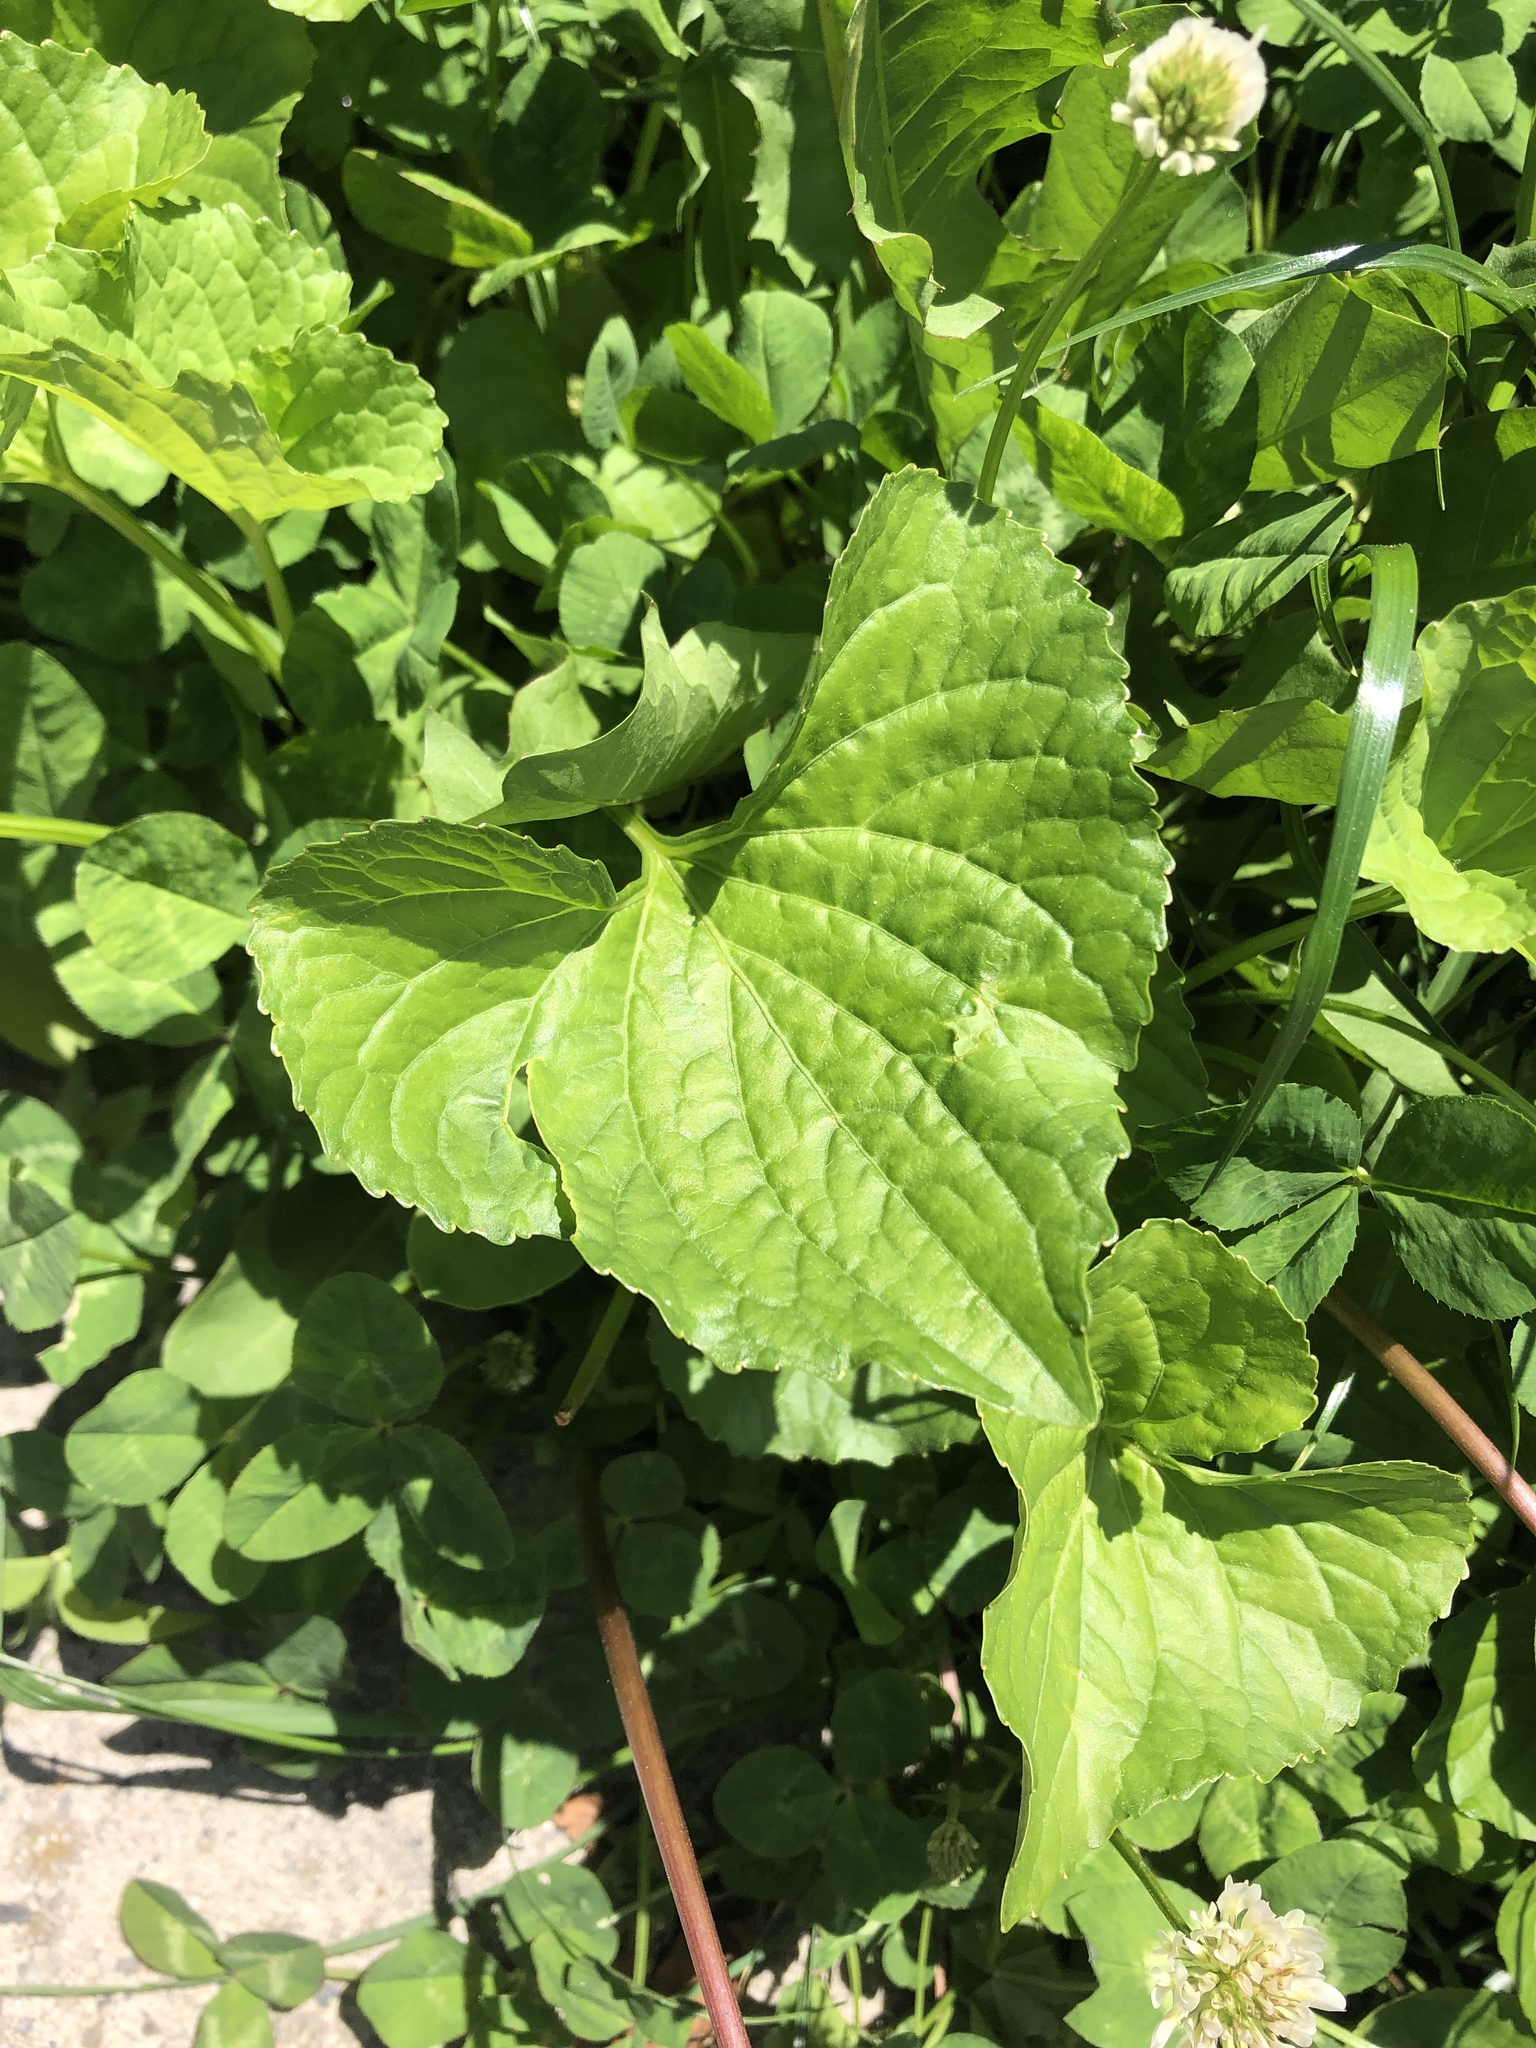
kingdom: Plantae
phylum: Tracheophyta
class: Magnoliopsida
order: Malpighiales
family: Violaceae
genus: Viola
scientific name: Viola sororia
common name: Dooryard violet
